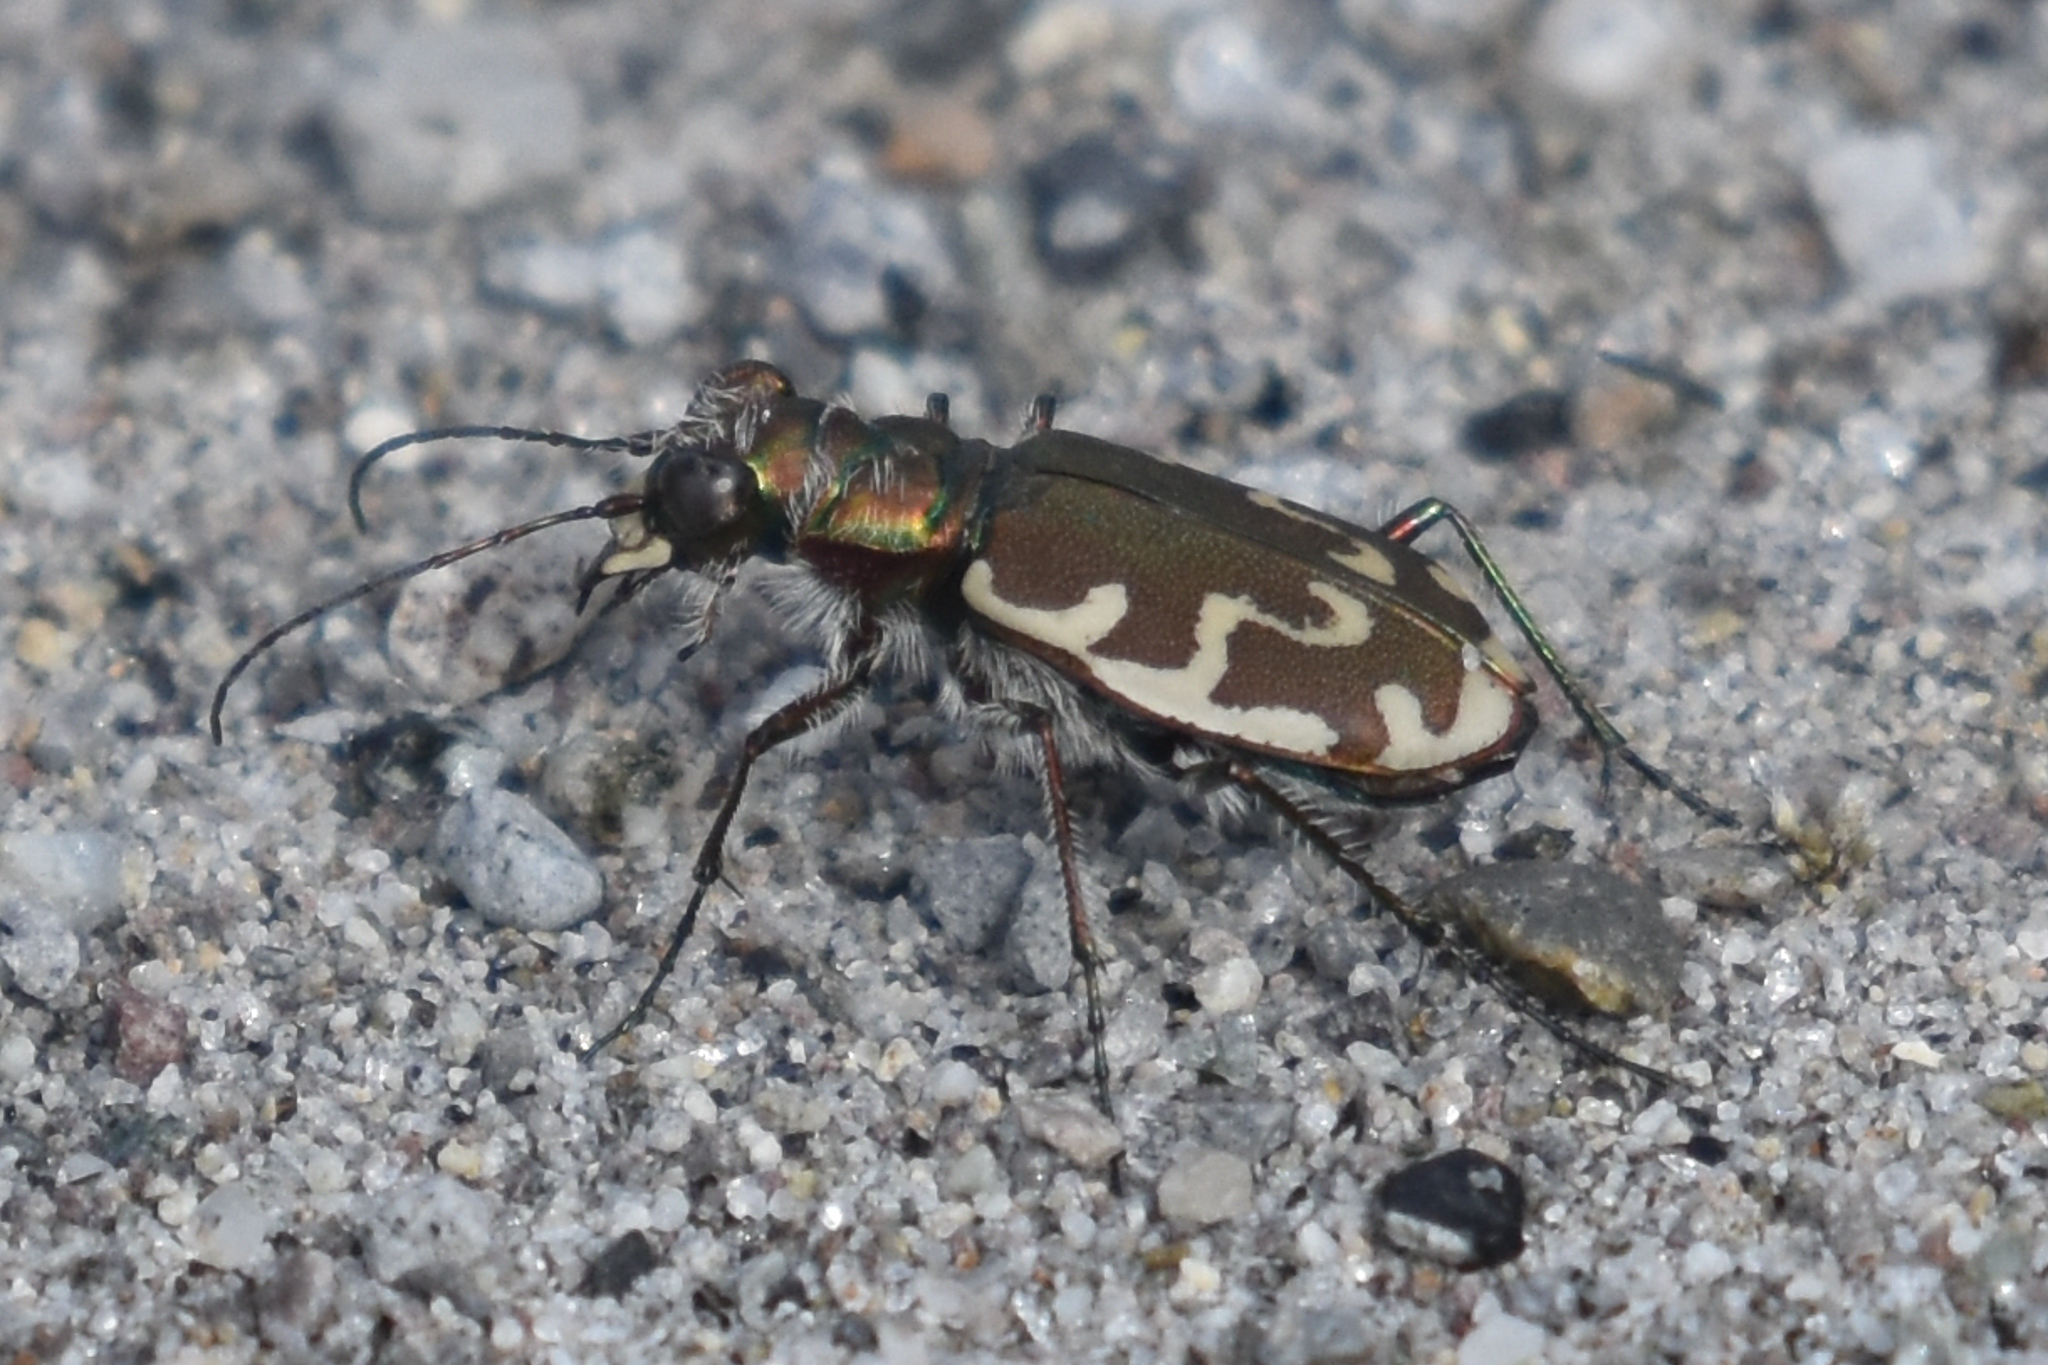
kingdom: Animalia
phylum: Arthropoda
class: Insecta
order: Coleoptera
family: Carabidae
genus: Cicindela
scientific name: Cicindela repanda
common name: Bronzed tiger beetle
